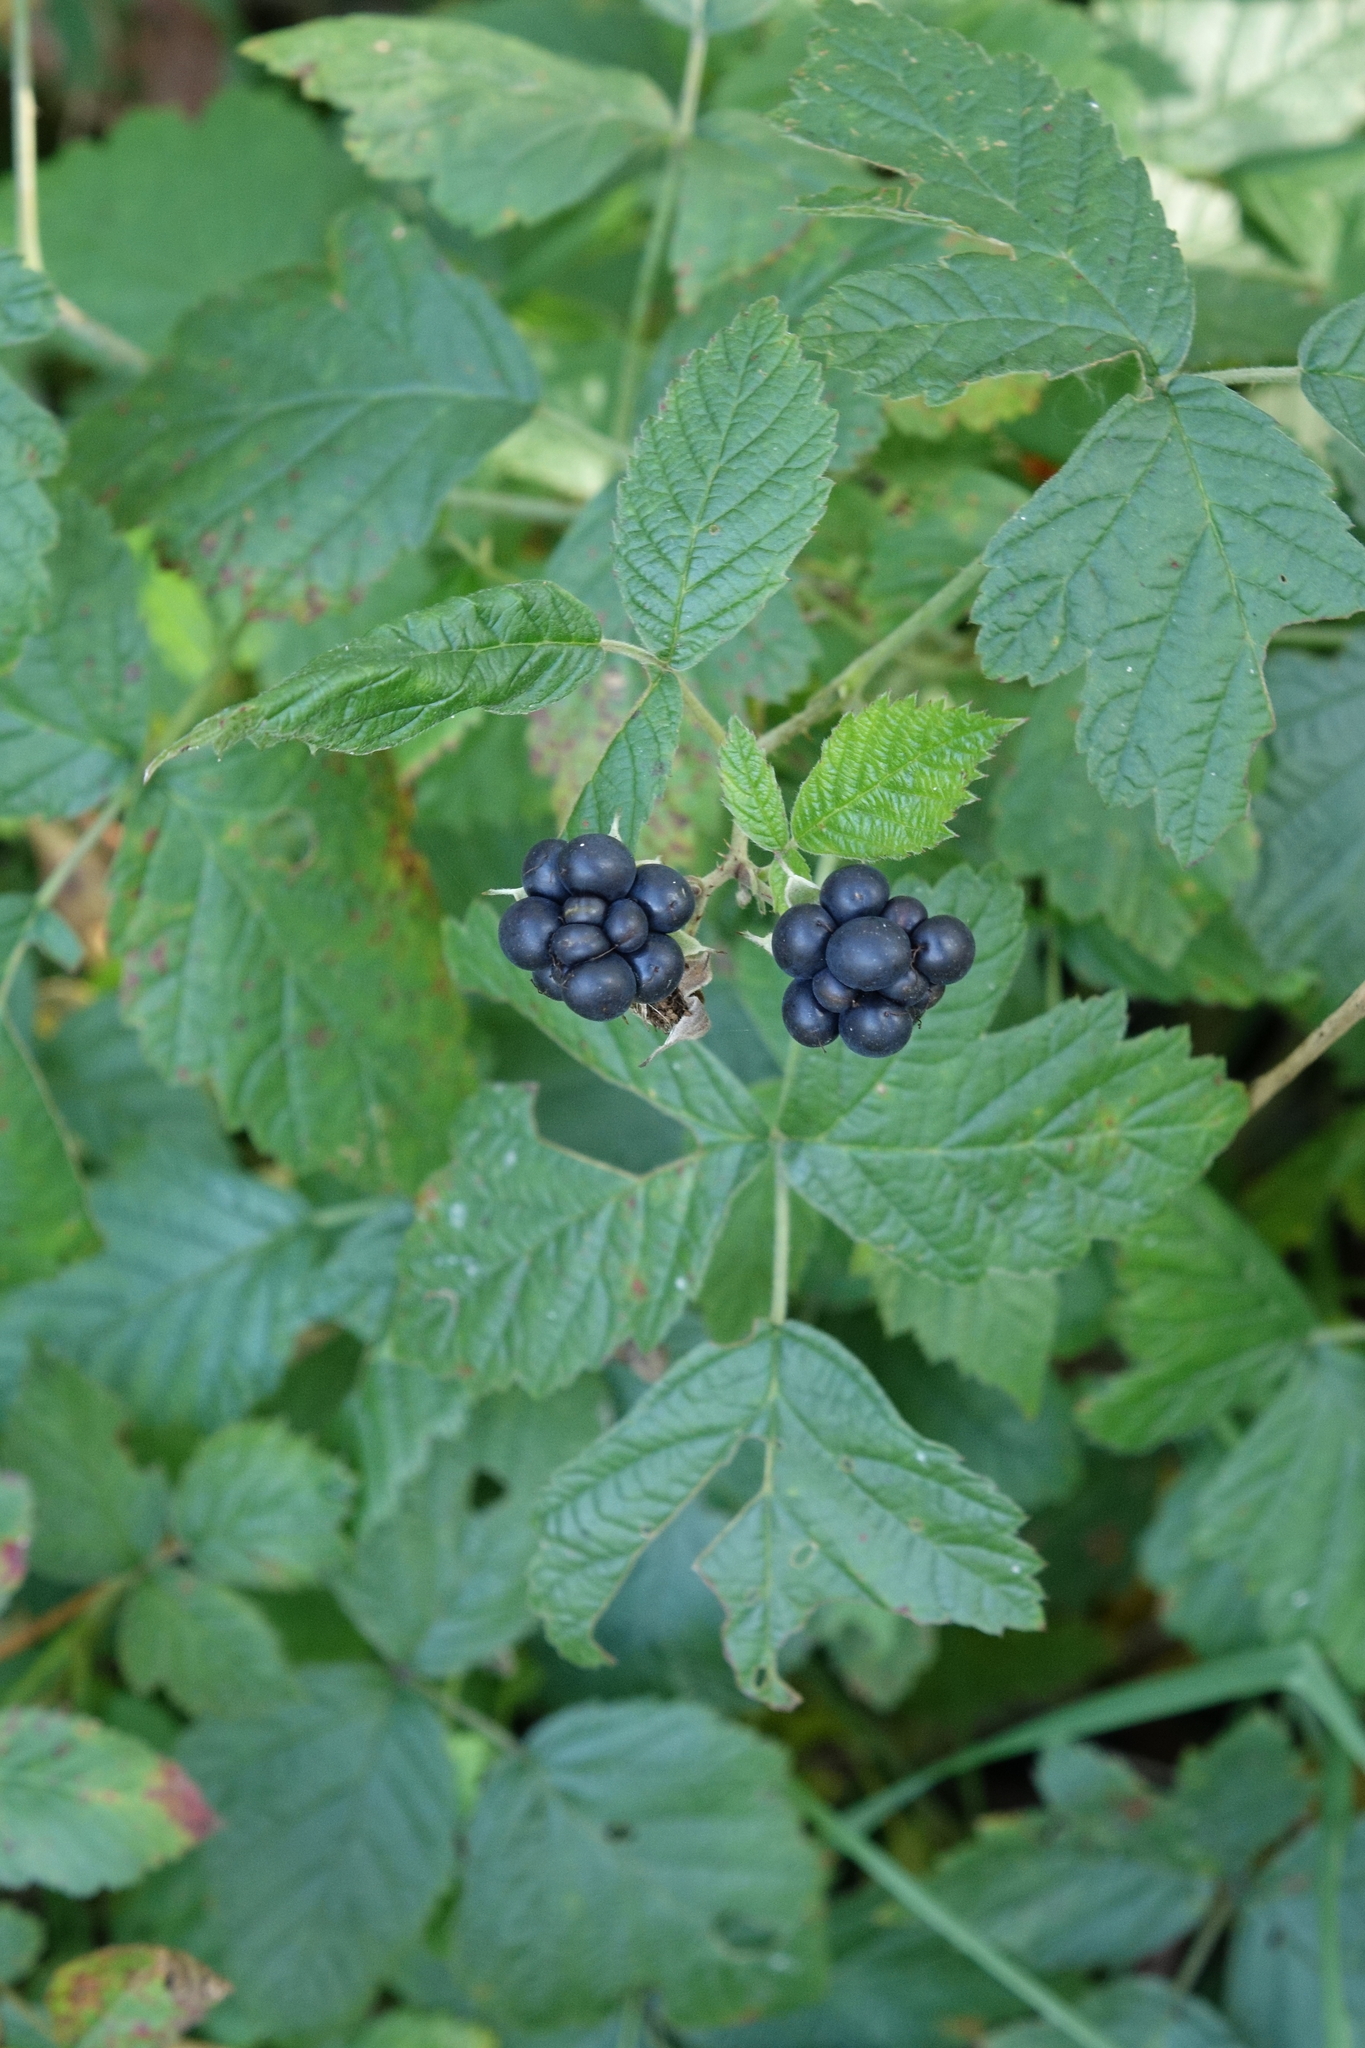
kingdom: Plantae
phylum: Tracheophyta
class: Magnoliopsida
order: Rosales
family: Rosaceae
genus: Rubus
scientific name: Rubus caesius
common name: Dewberry
